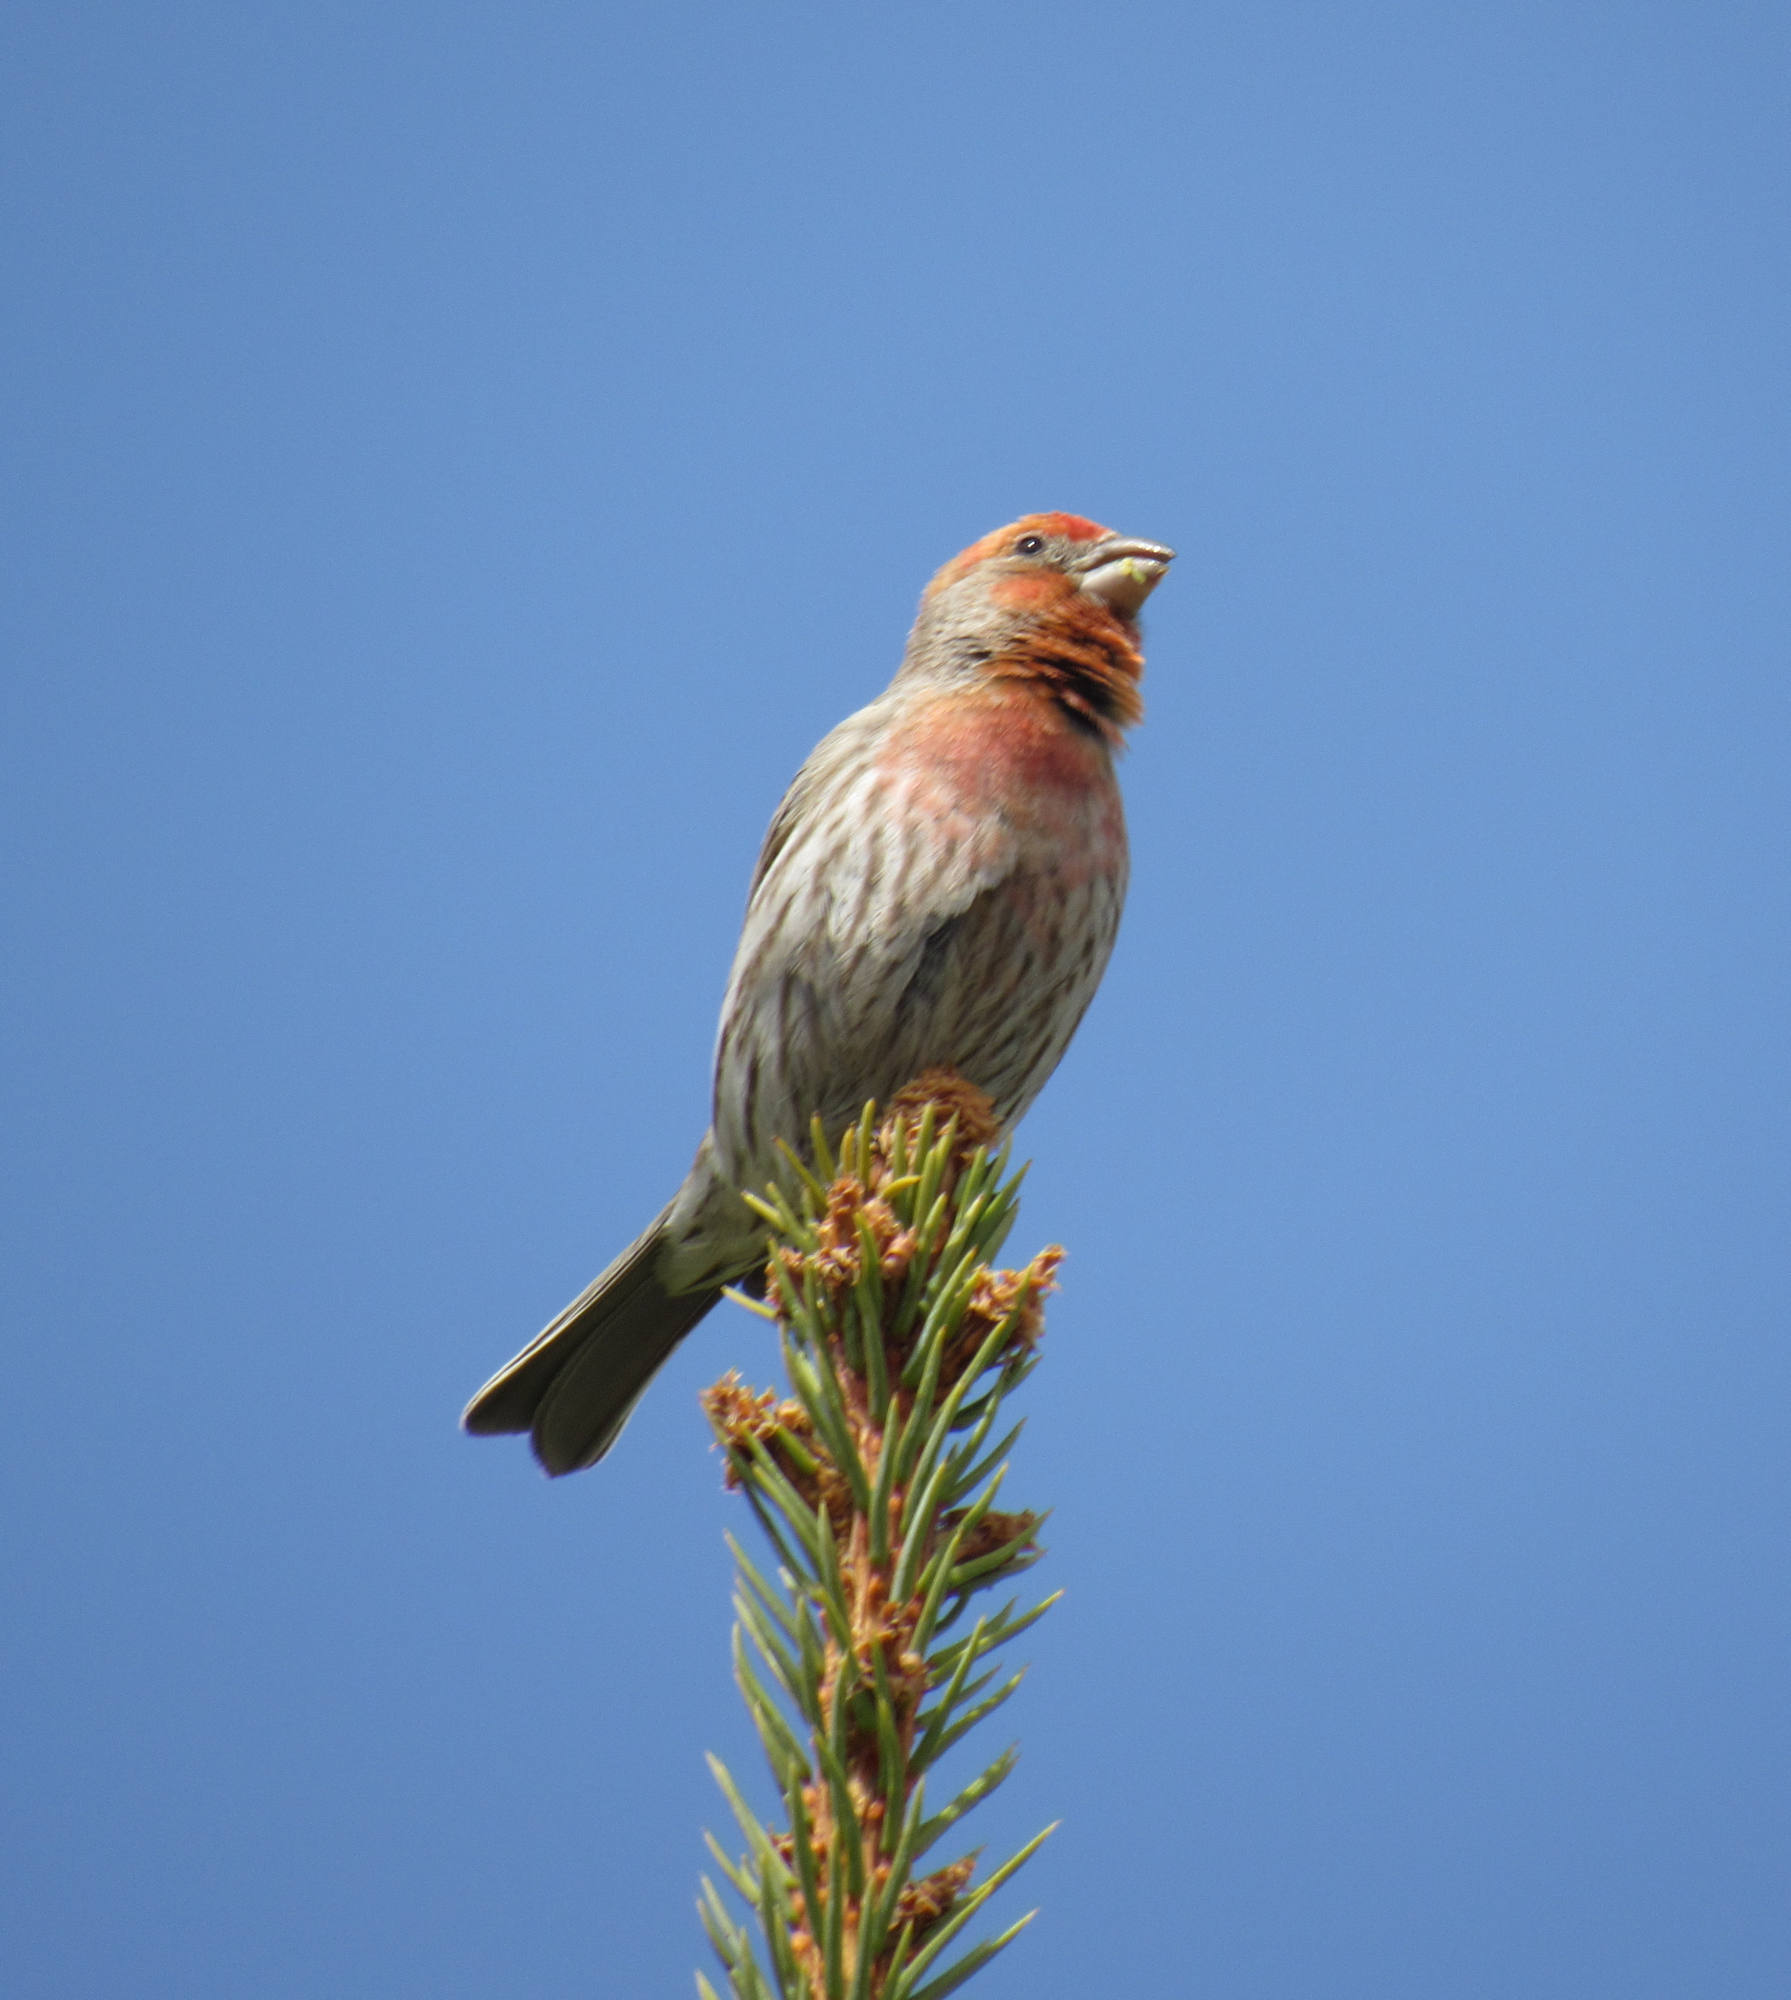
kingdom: Animalia
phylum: Chordata
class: Aves
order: Passeriformes
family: Fringillidae
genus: Haemorhous
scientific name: Haemorhous mexicanus
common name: House finch
